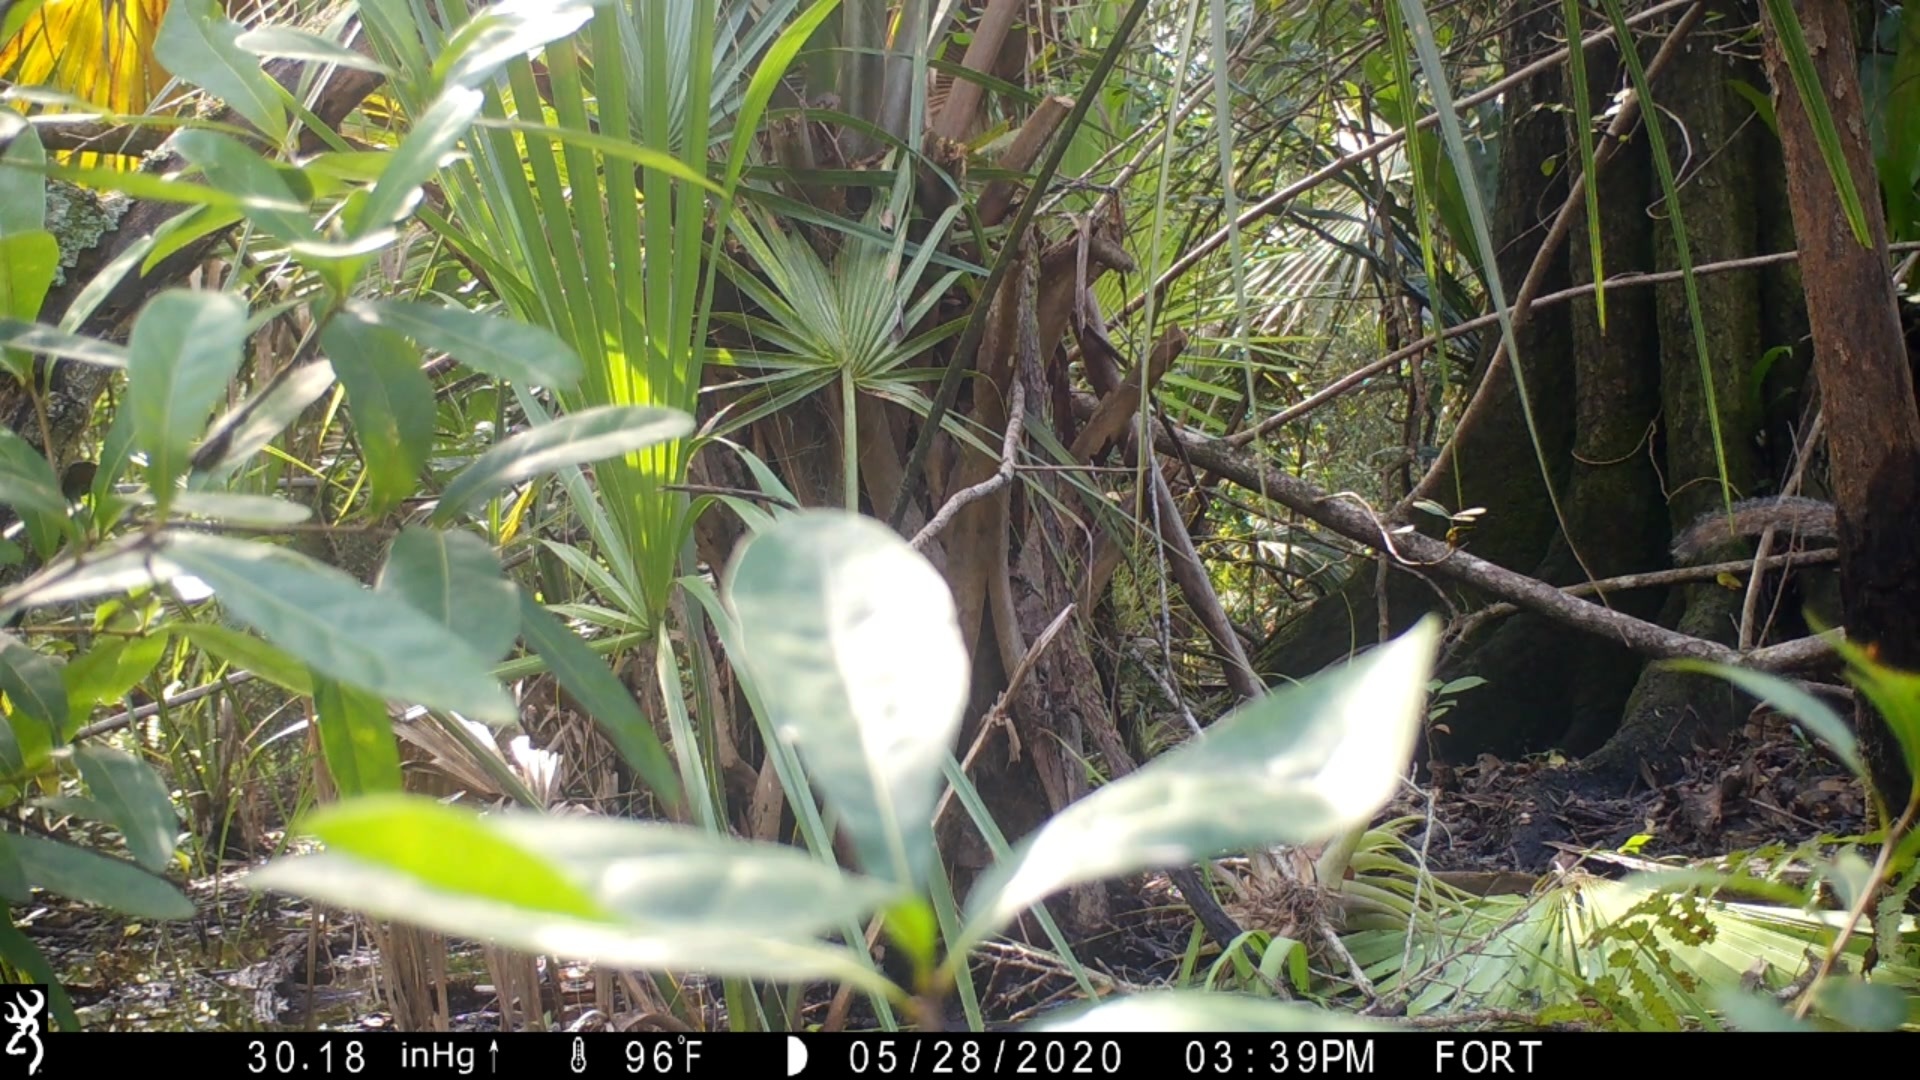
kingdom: Animalia
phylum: Chordata
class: Mammalia
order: Rodentia
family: Sciuridae
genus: Sciurus
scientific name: Sciurus carolinensis
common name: Eastern gray squirrel
